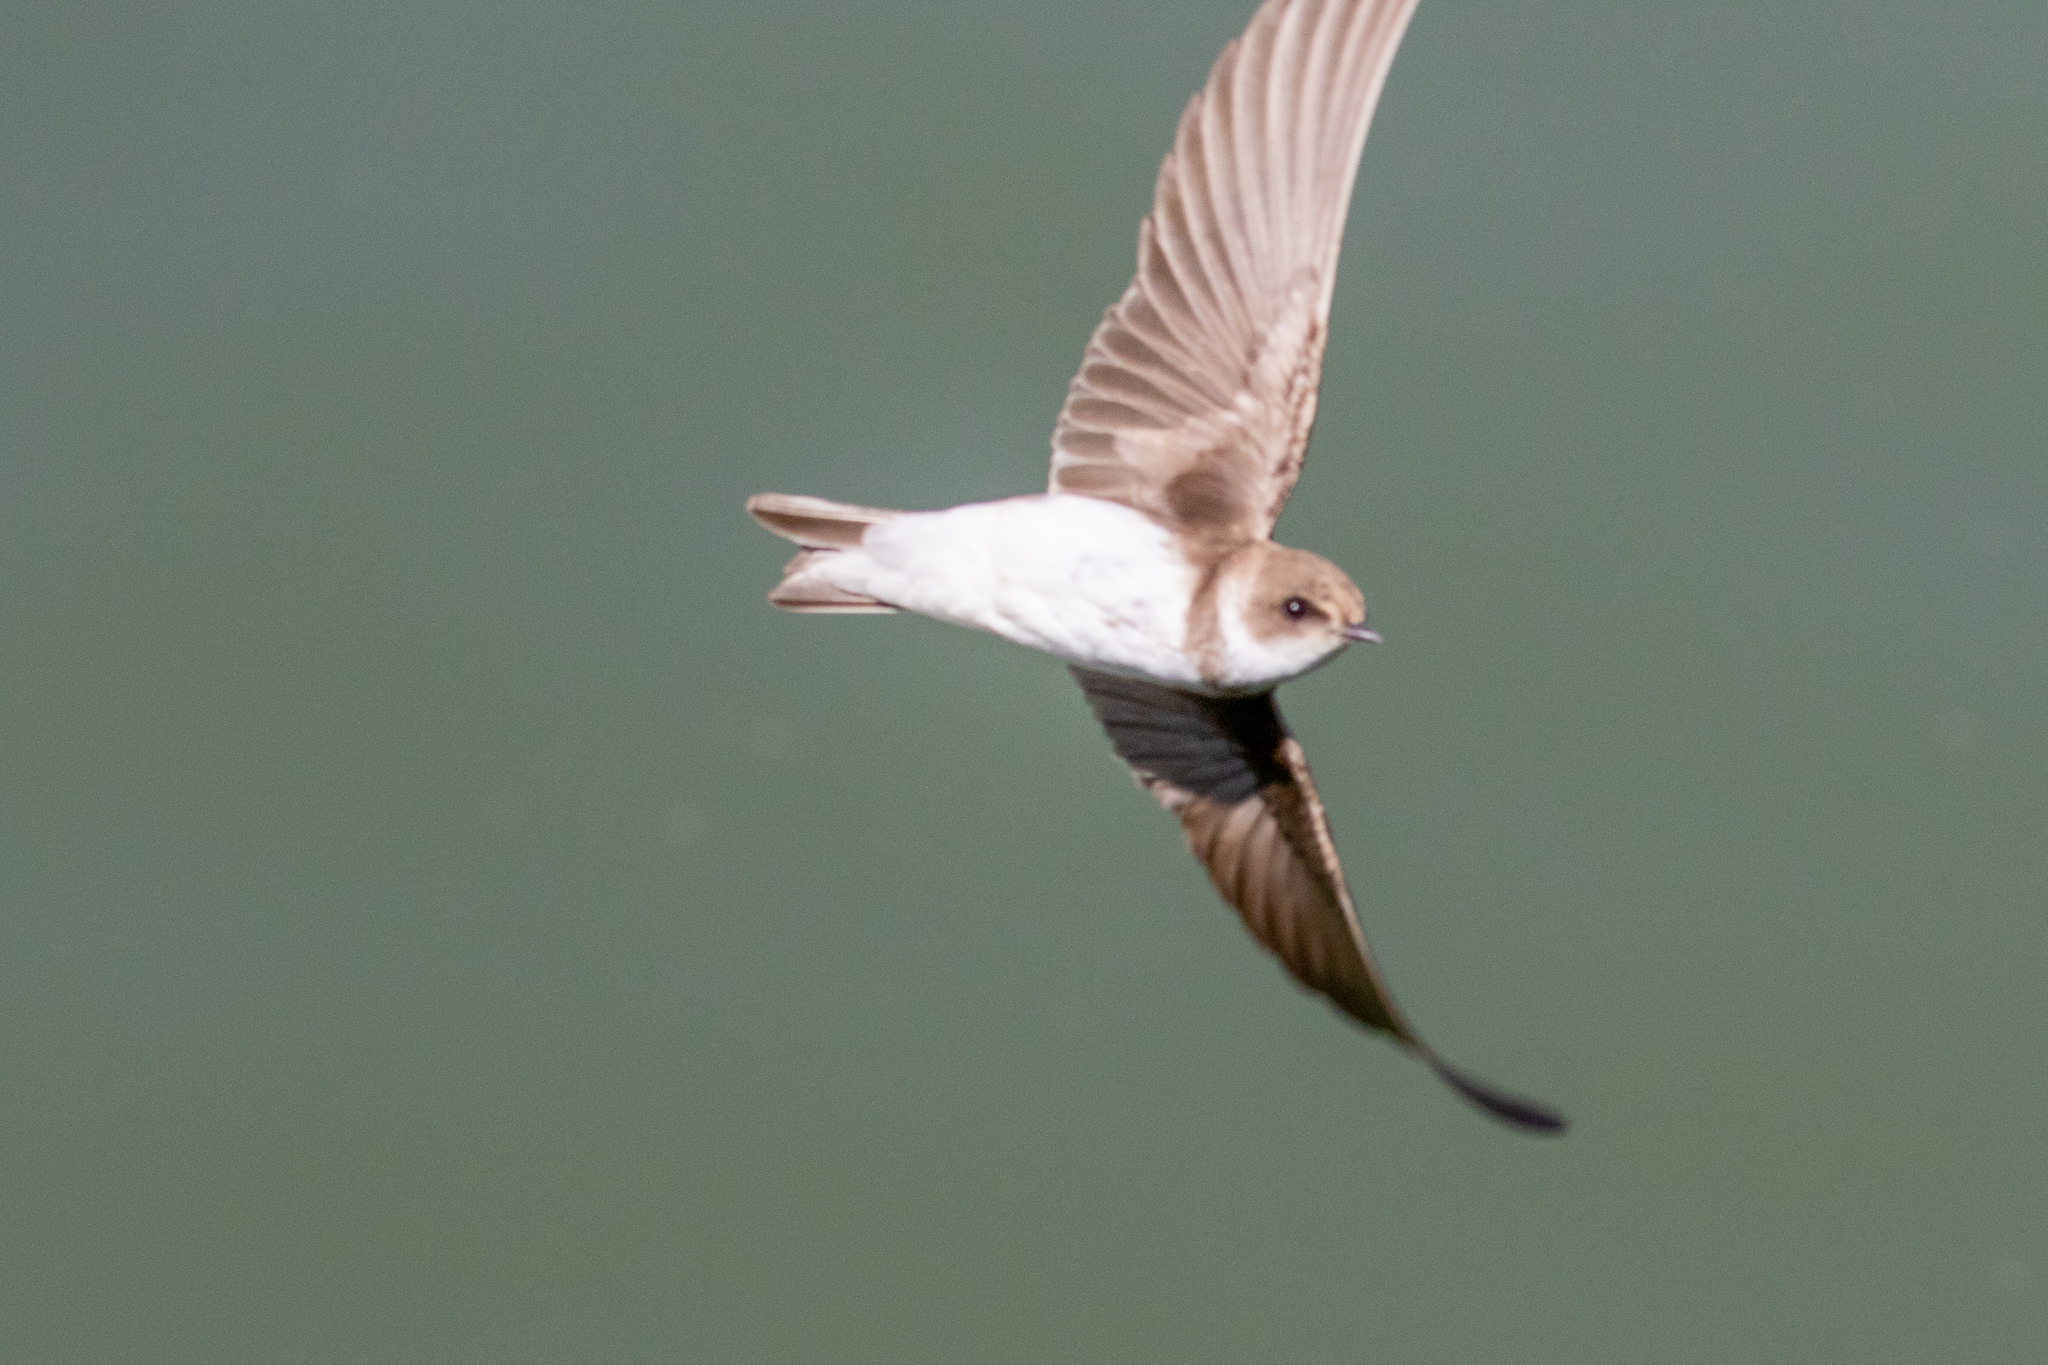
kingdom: Animalia
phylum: Chordata
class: Aves
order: Passeriformes
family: Hirundinidae
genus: Riparia
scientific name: Riparia riparia
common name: Sand martin
